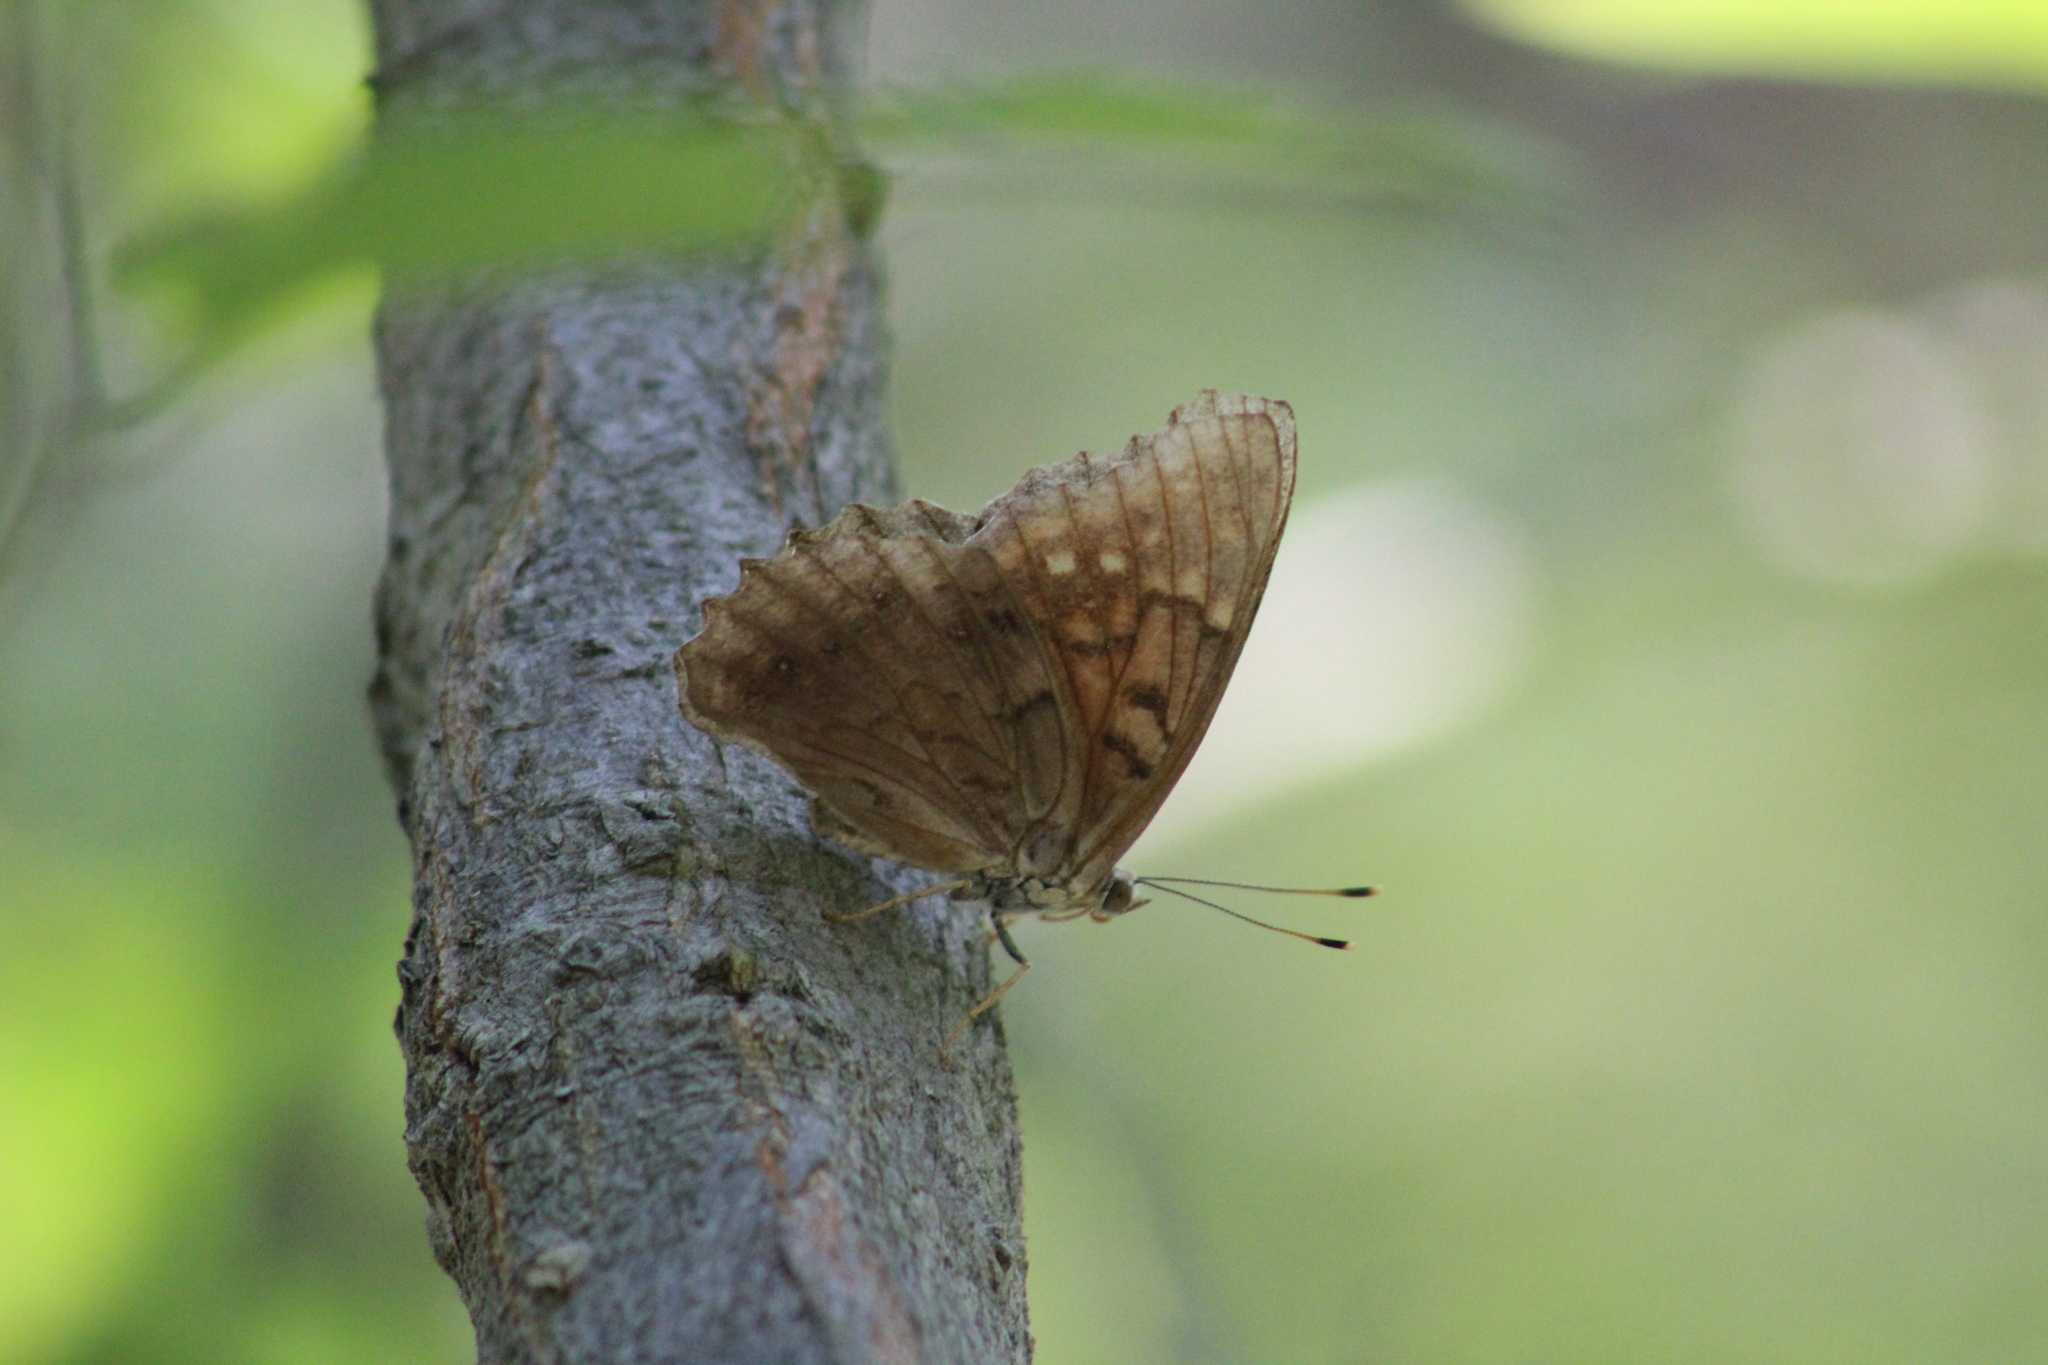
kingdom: Animalia
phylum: Arthropoda
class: Insecta
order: Lepidoptera
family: Nymphalidae
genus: Asterocampa
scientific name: Asterocampa clyton
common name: Tawny emperor
